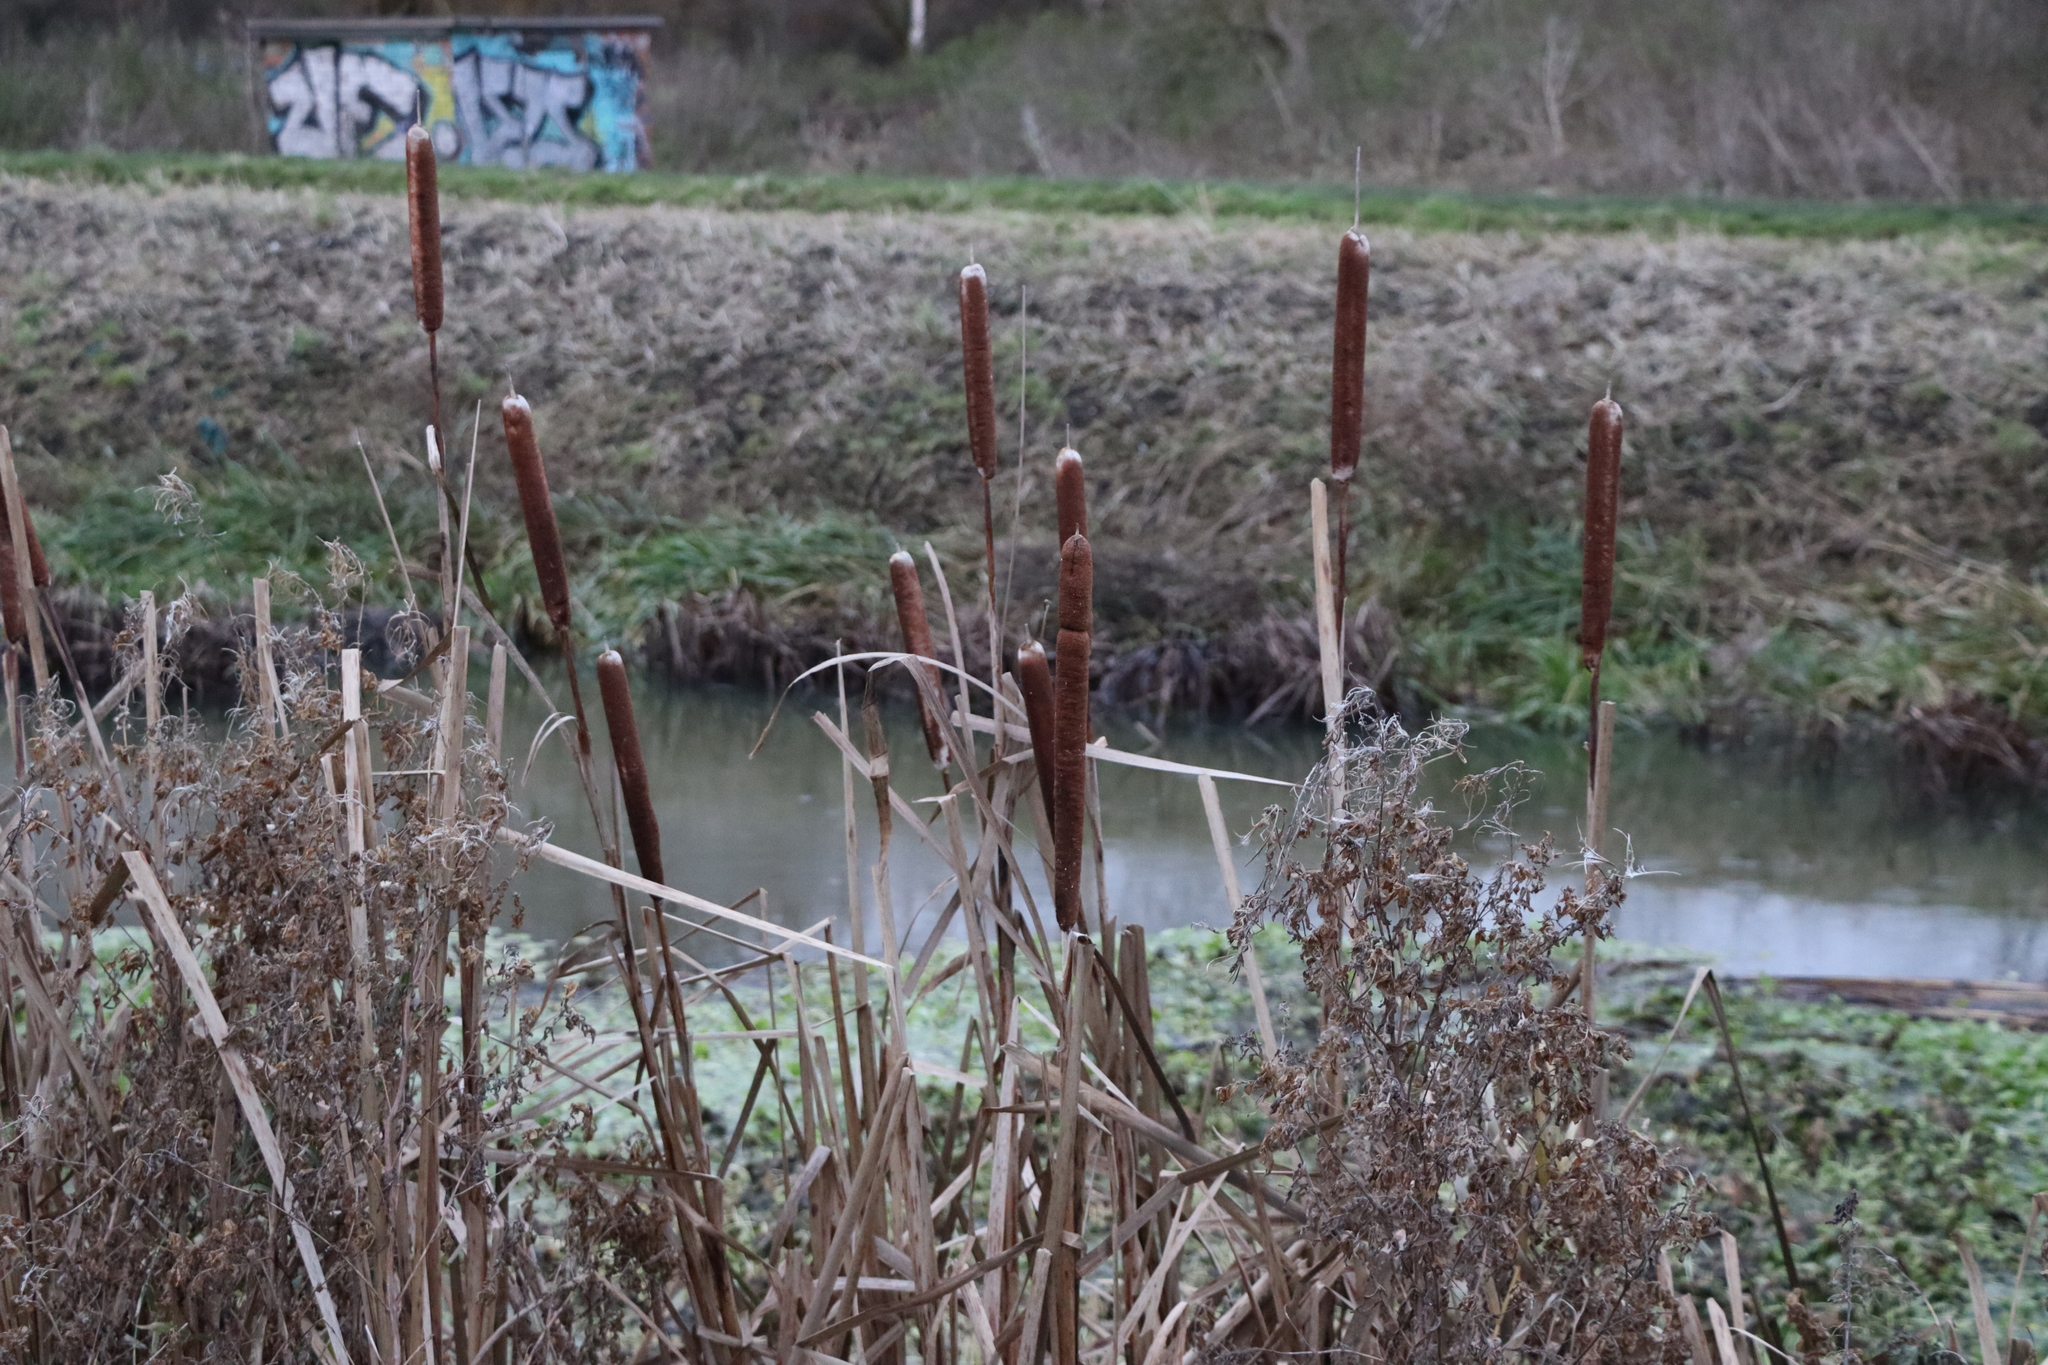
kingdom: Plantae
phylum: Tracheophyta
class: Liliopsida
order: Poales
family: Typhaceae
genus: Typha
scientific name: Typha latifolia
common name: Broadleaf cattail
